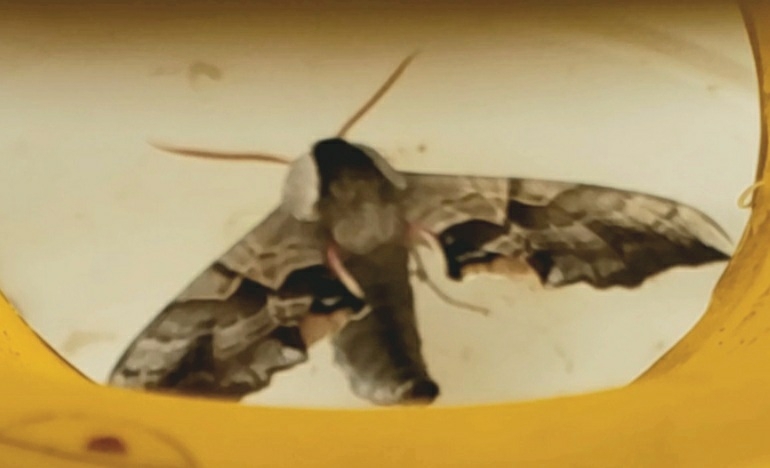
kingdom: Animalia
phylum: Arthropoda
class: Insecta
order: Lepidoptera
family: Sphingidae
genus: Smerinthus
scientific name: Smerinthus cerisyi
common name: Cerisy's sphinx moth
